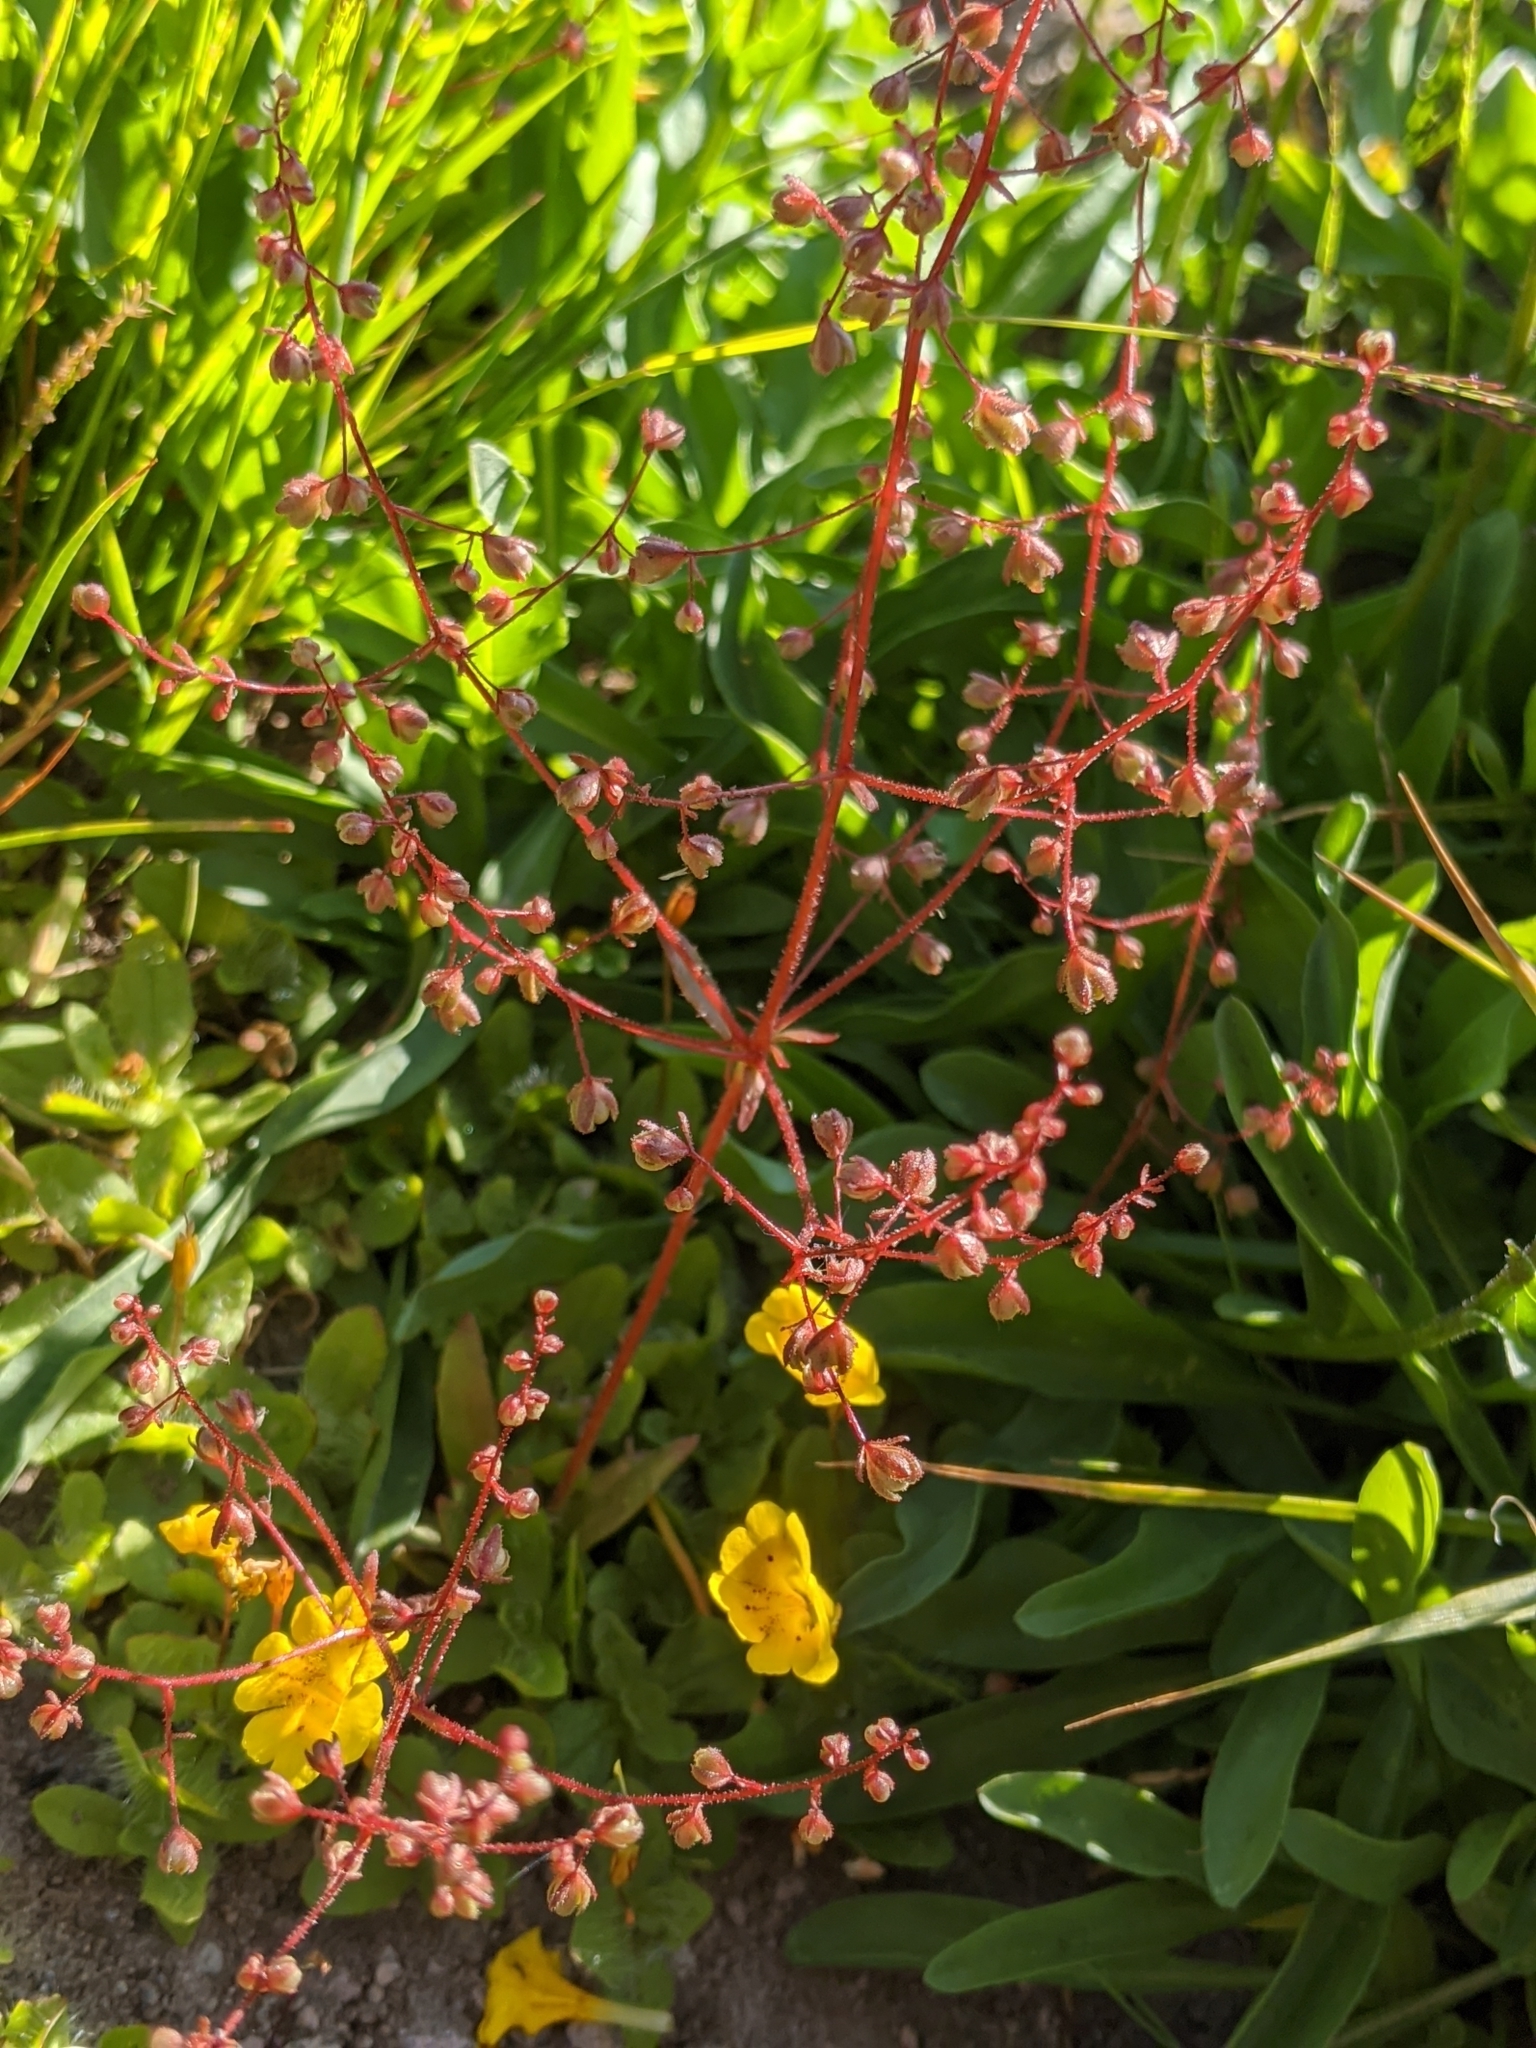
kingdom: Plantae
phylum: Tracheophyta
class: Magnoliopsida
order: Saxifragales
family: Saxifragaceae
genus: Micranthes
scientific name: Micranthes bryophora
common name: Bud saxifrage
